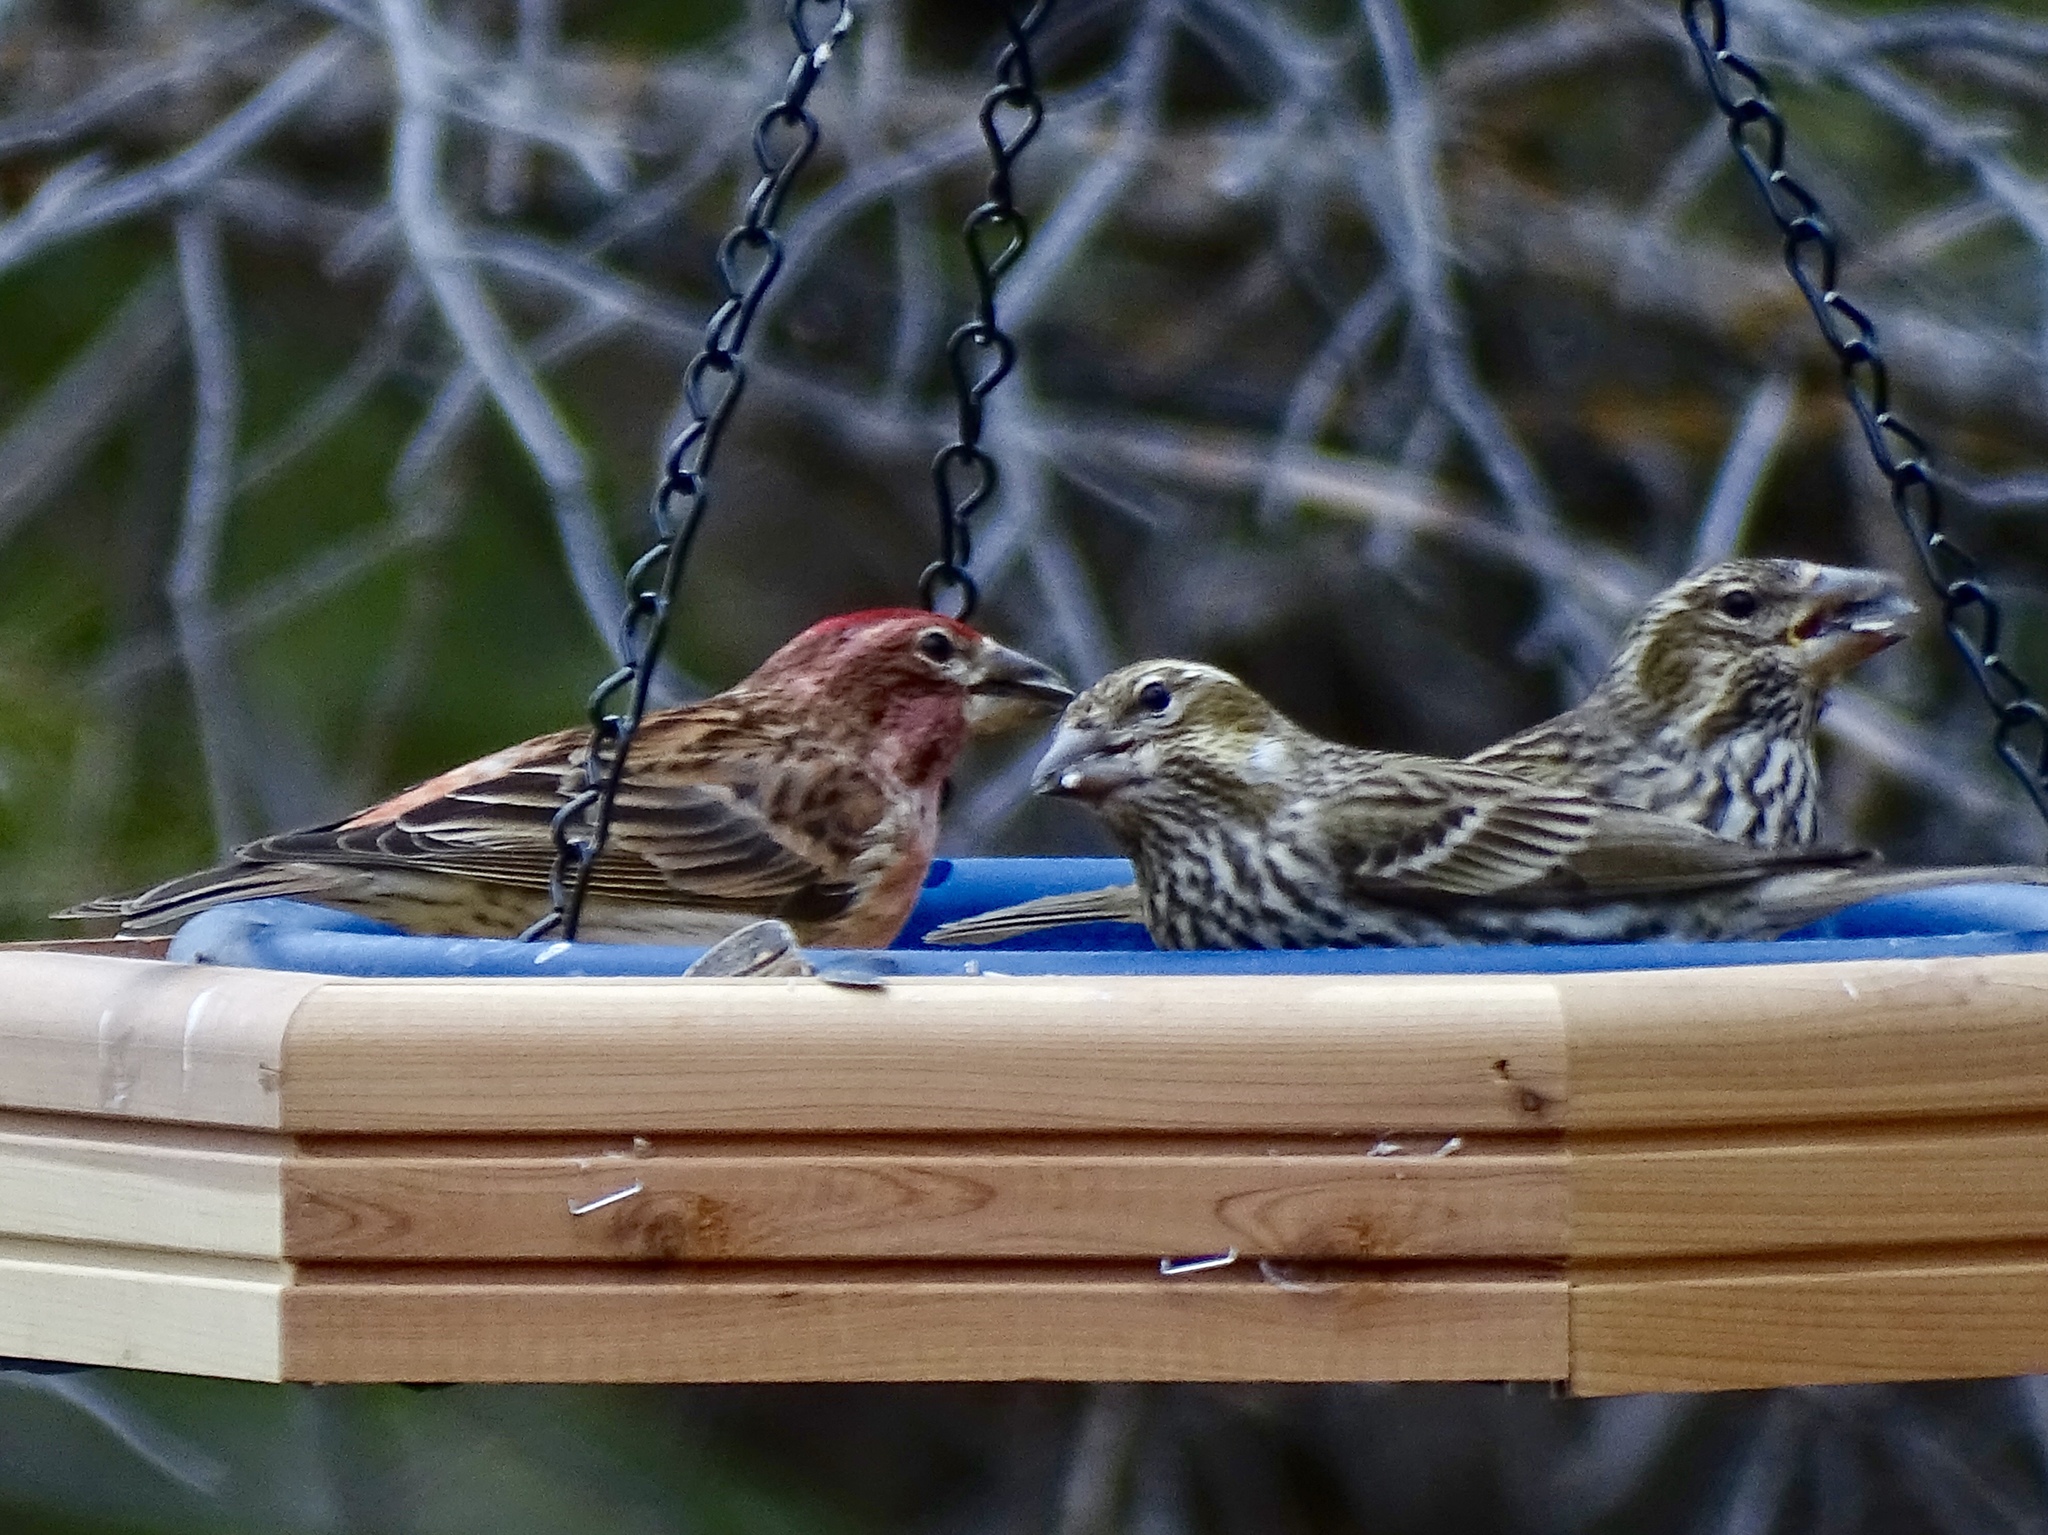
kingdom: Animalia
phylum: Chordata
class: Aves
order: Passeriformes
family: Fringillidae
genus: Haemorhous
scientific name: Haemorhous cassinii
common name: Cassin's finch
